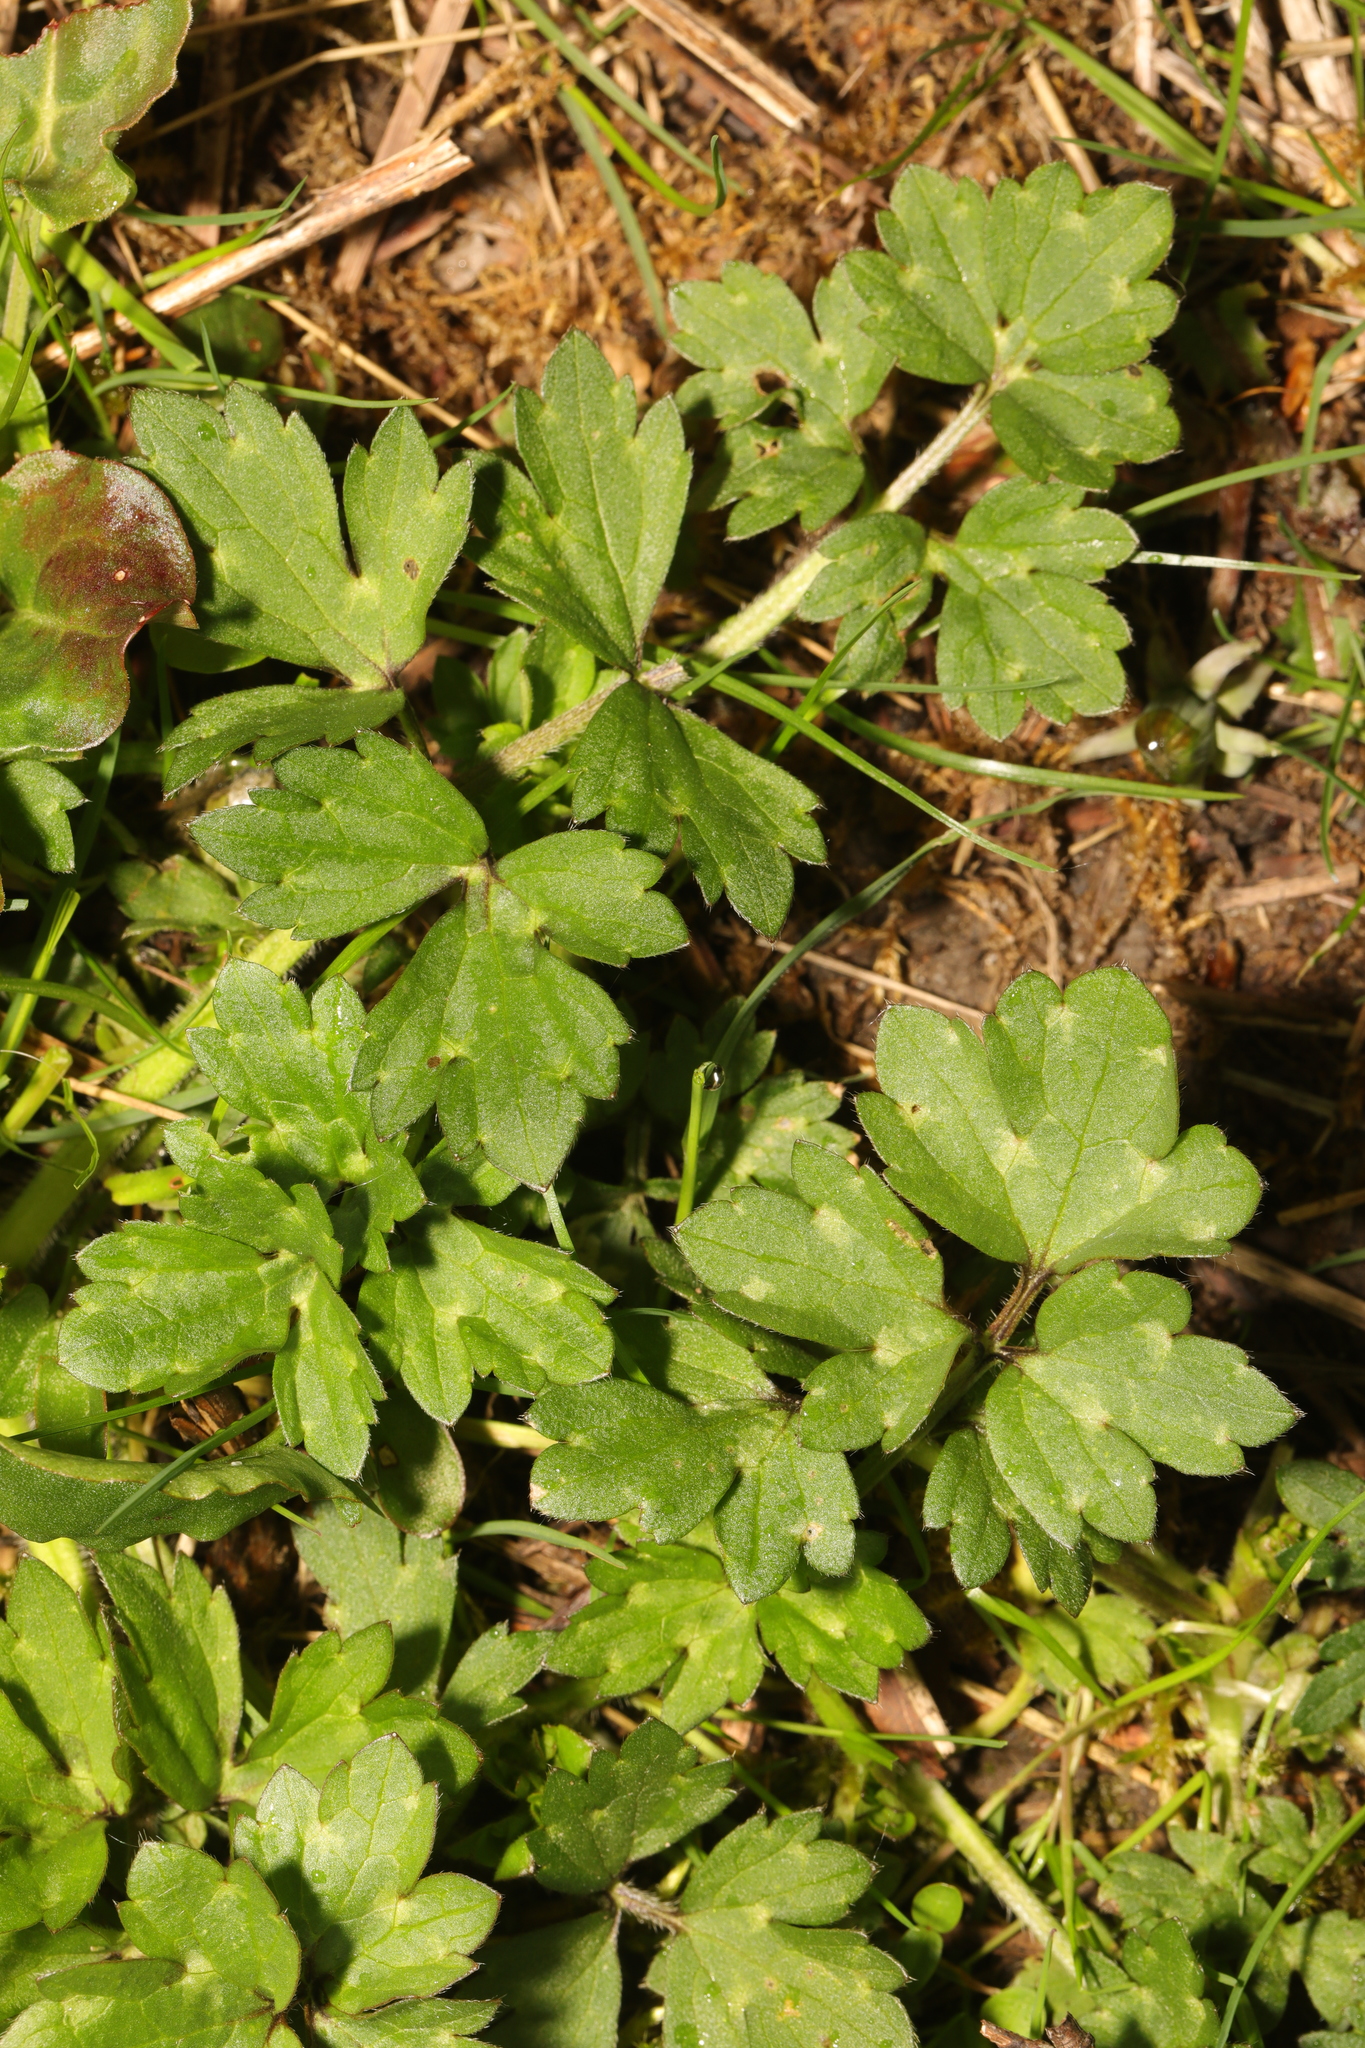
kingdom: Plantae
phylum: Tracheophyta
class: Magnoliopsida
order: Ranunculales
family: Ranunculaceae
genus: Ranunculus
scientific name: Ranunculus repens
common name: Creeping buttercup
